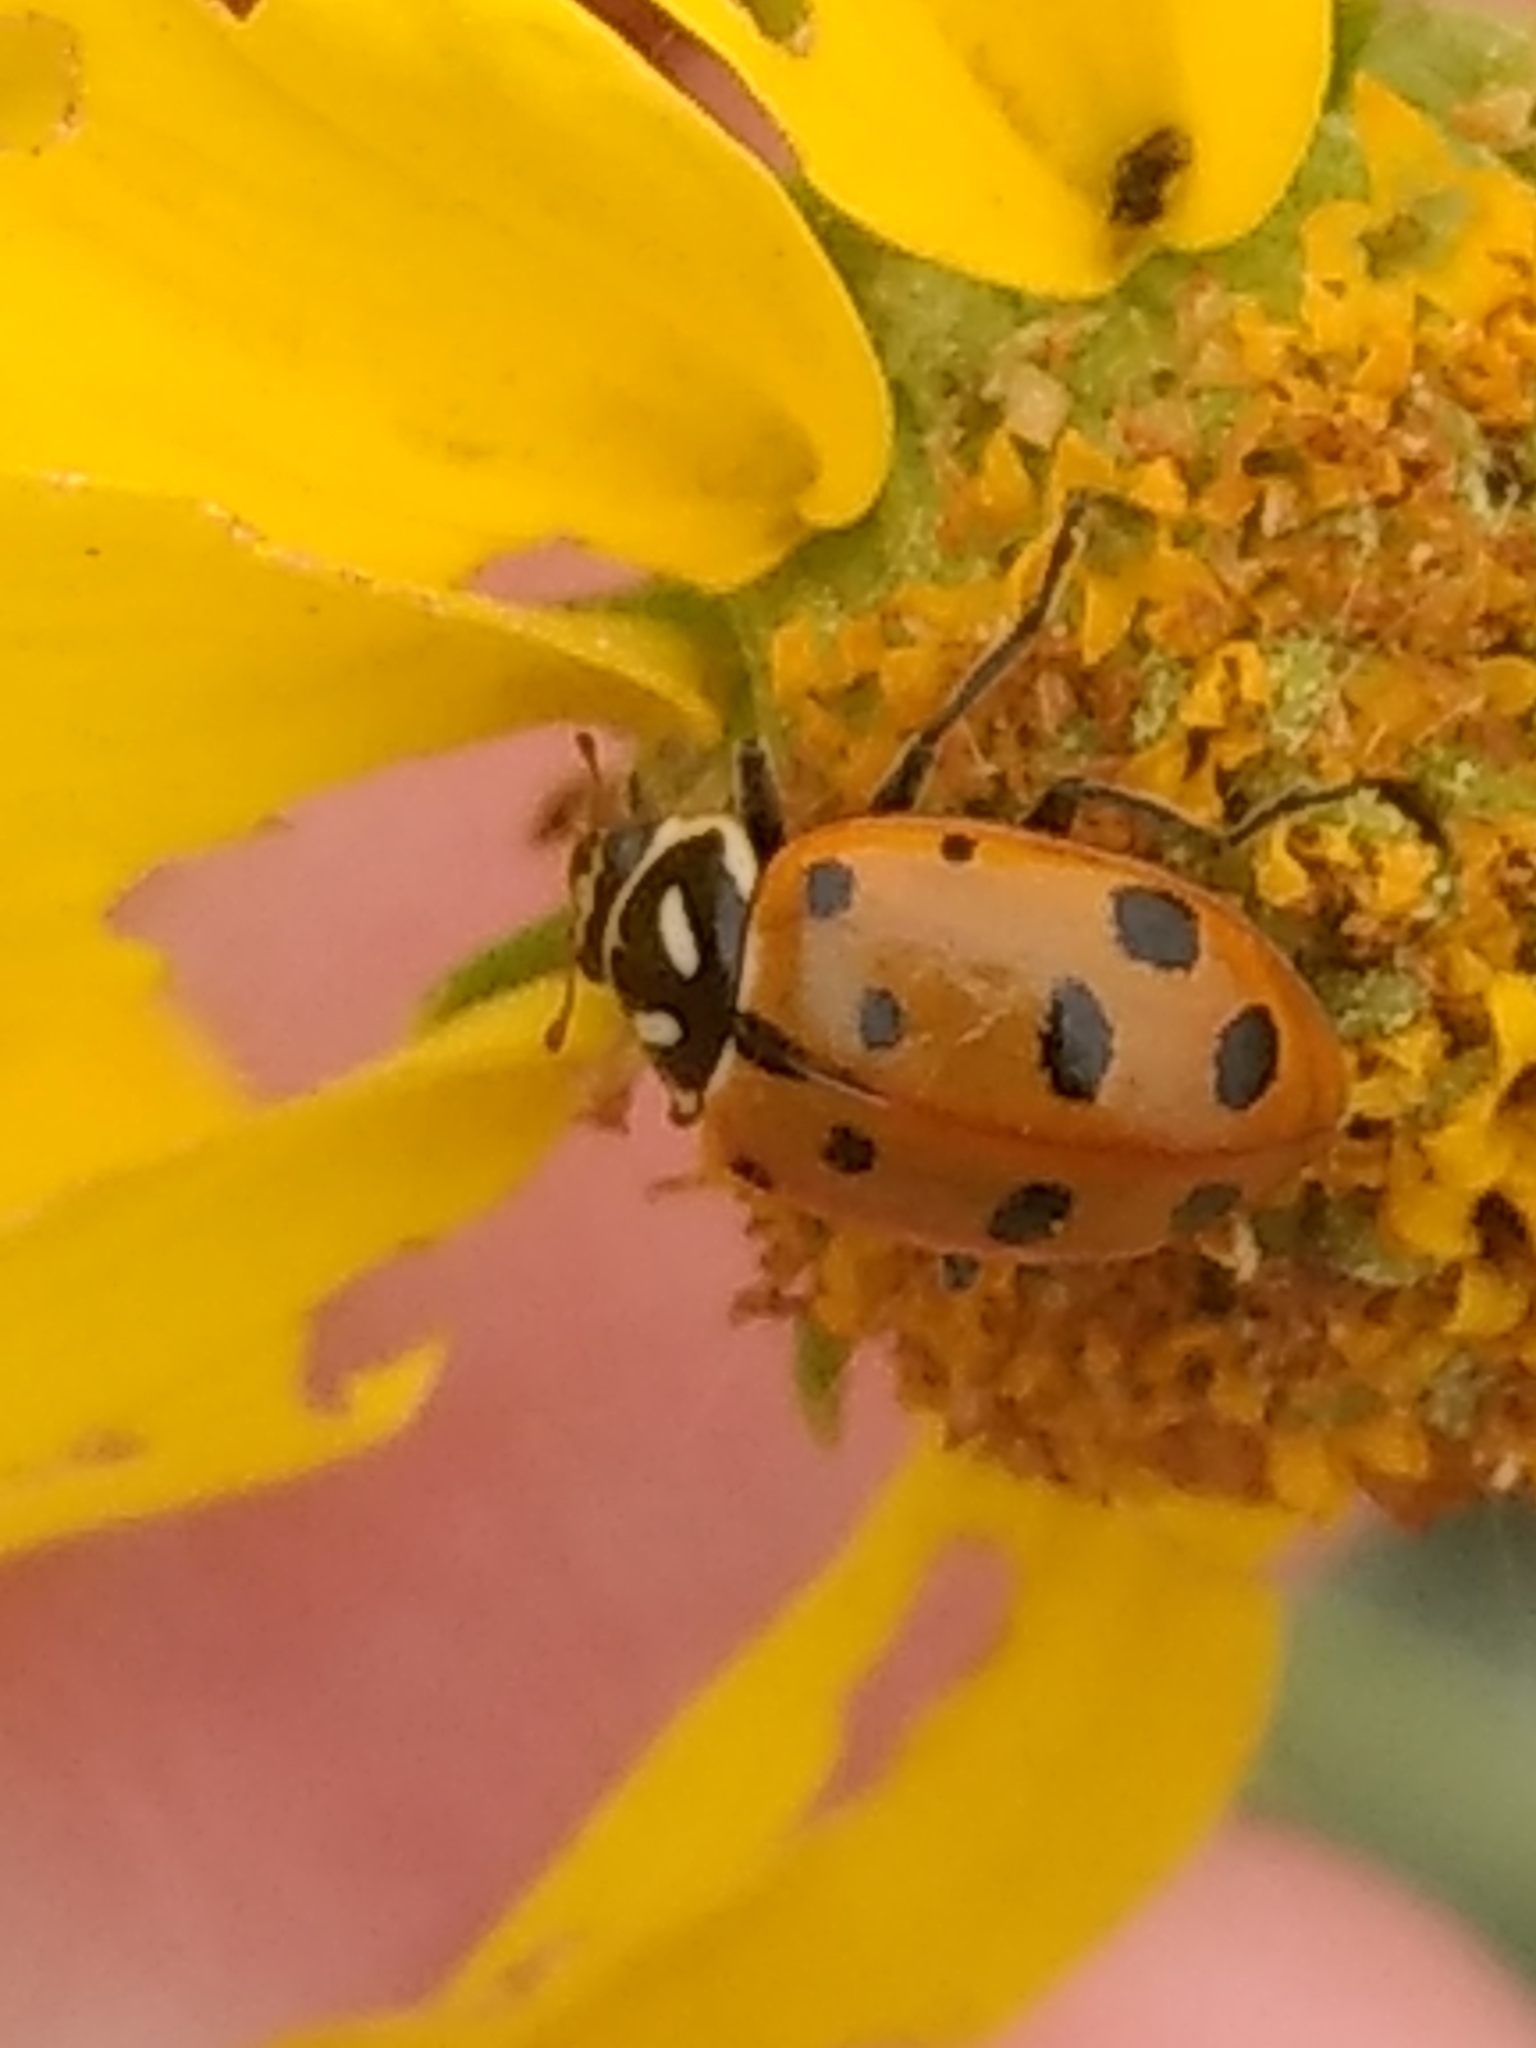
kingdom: Animalia
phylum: Arthropoda
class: Insecta
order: Coleoptera
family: Coccinellidae
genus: Hippodamia
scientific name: Hippodamia convergens
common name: Convergent lady beetle
